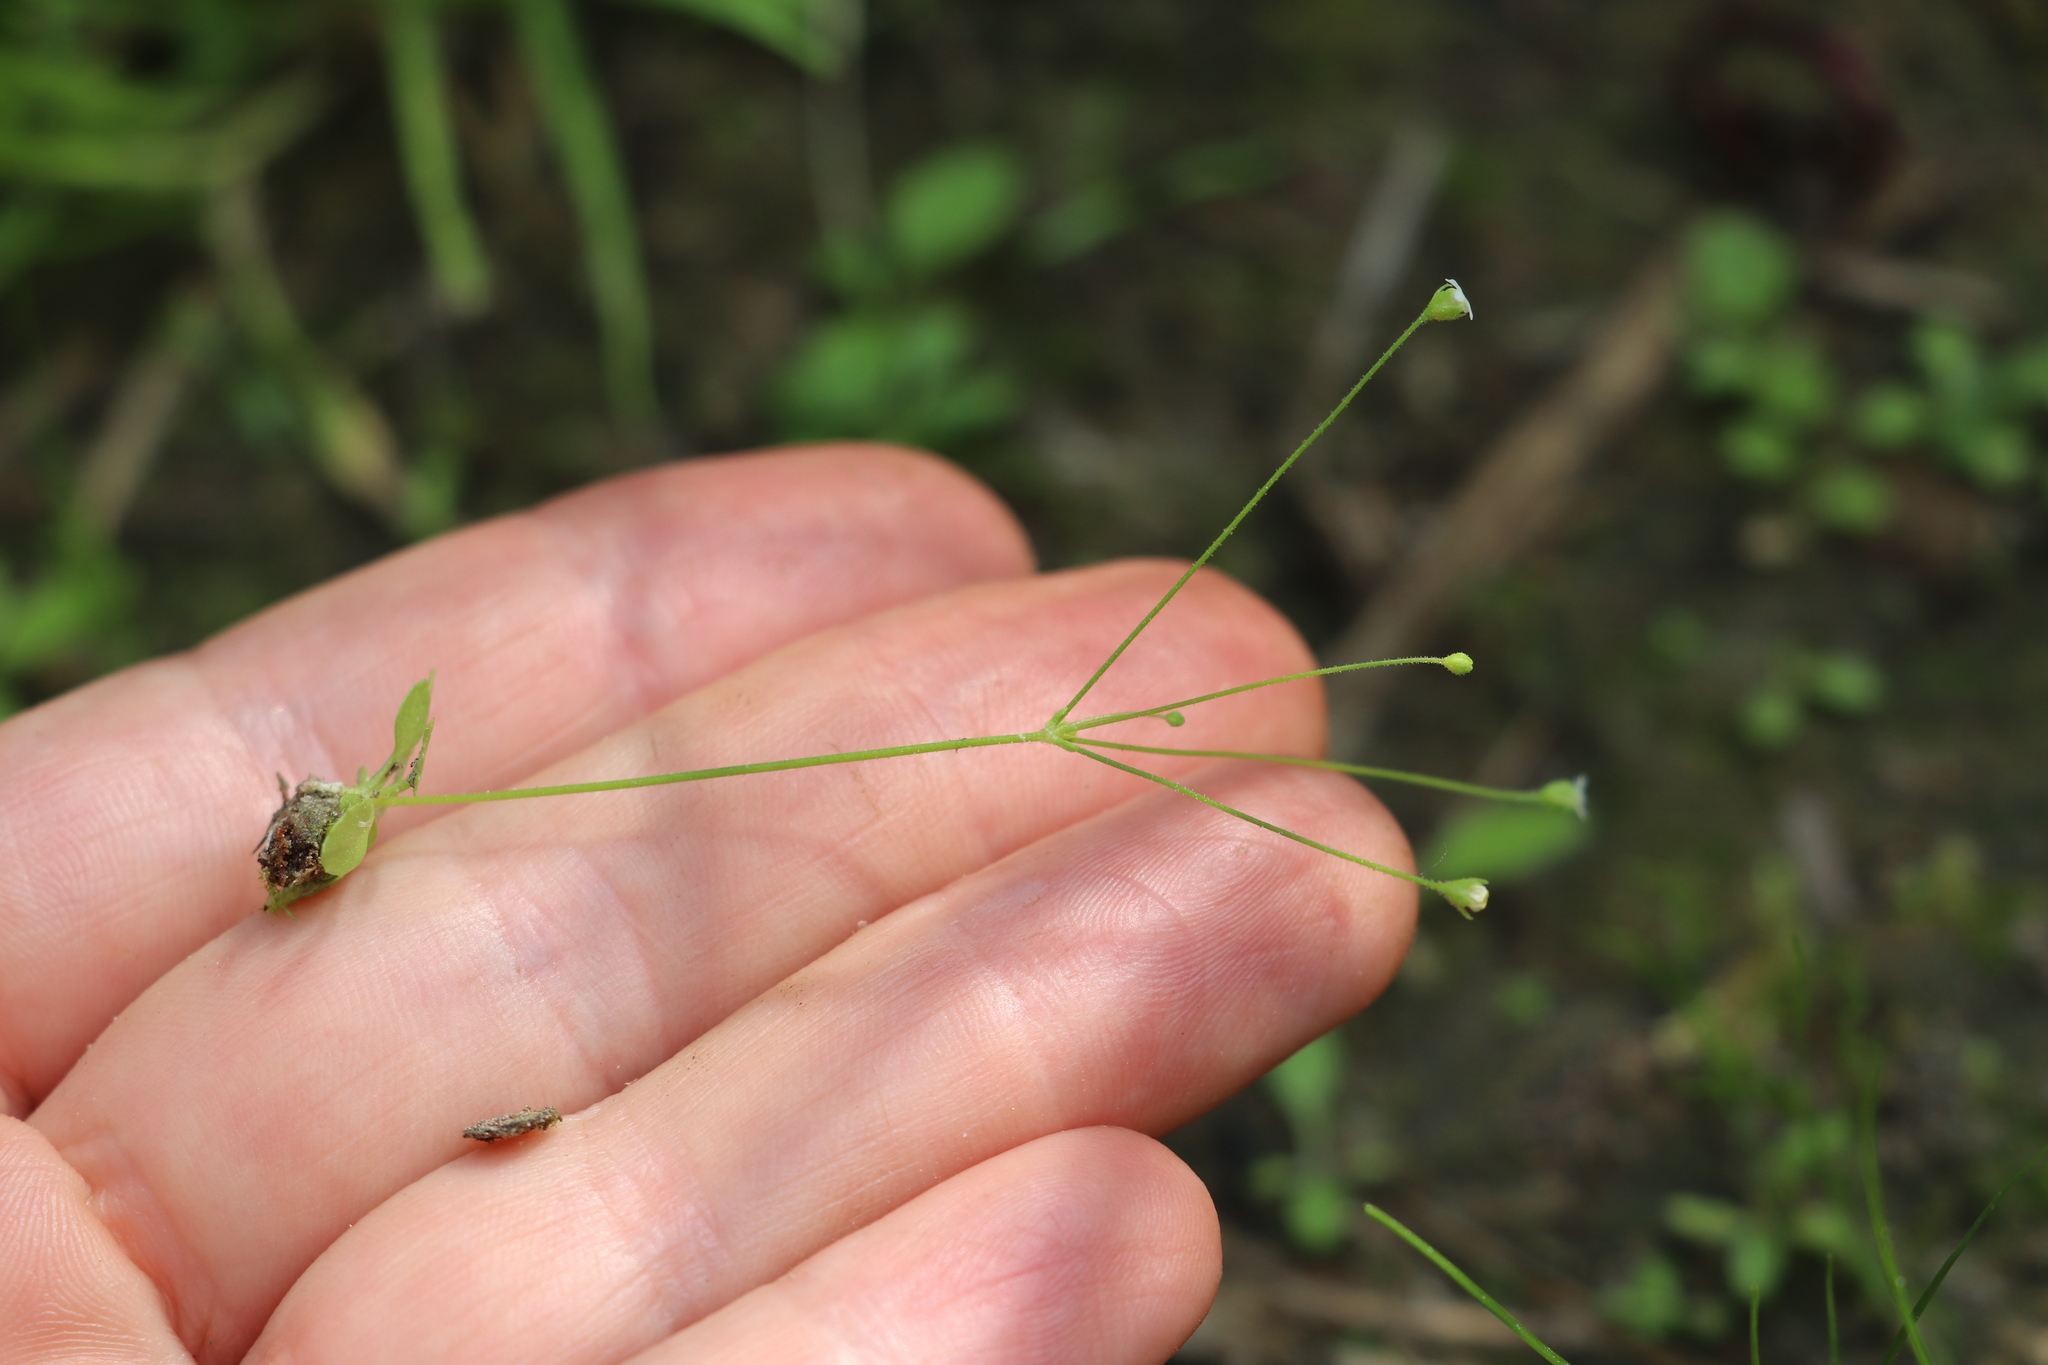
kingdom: Plantae
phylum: Tracheophyta
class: Magnoliopsida
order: Ericales
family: Primulaceae
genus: Androsace
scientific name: Androsace filiformis
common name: Filiform rock jasmine
